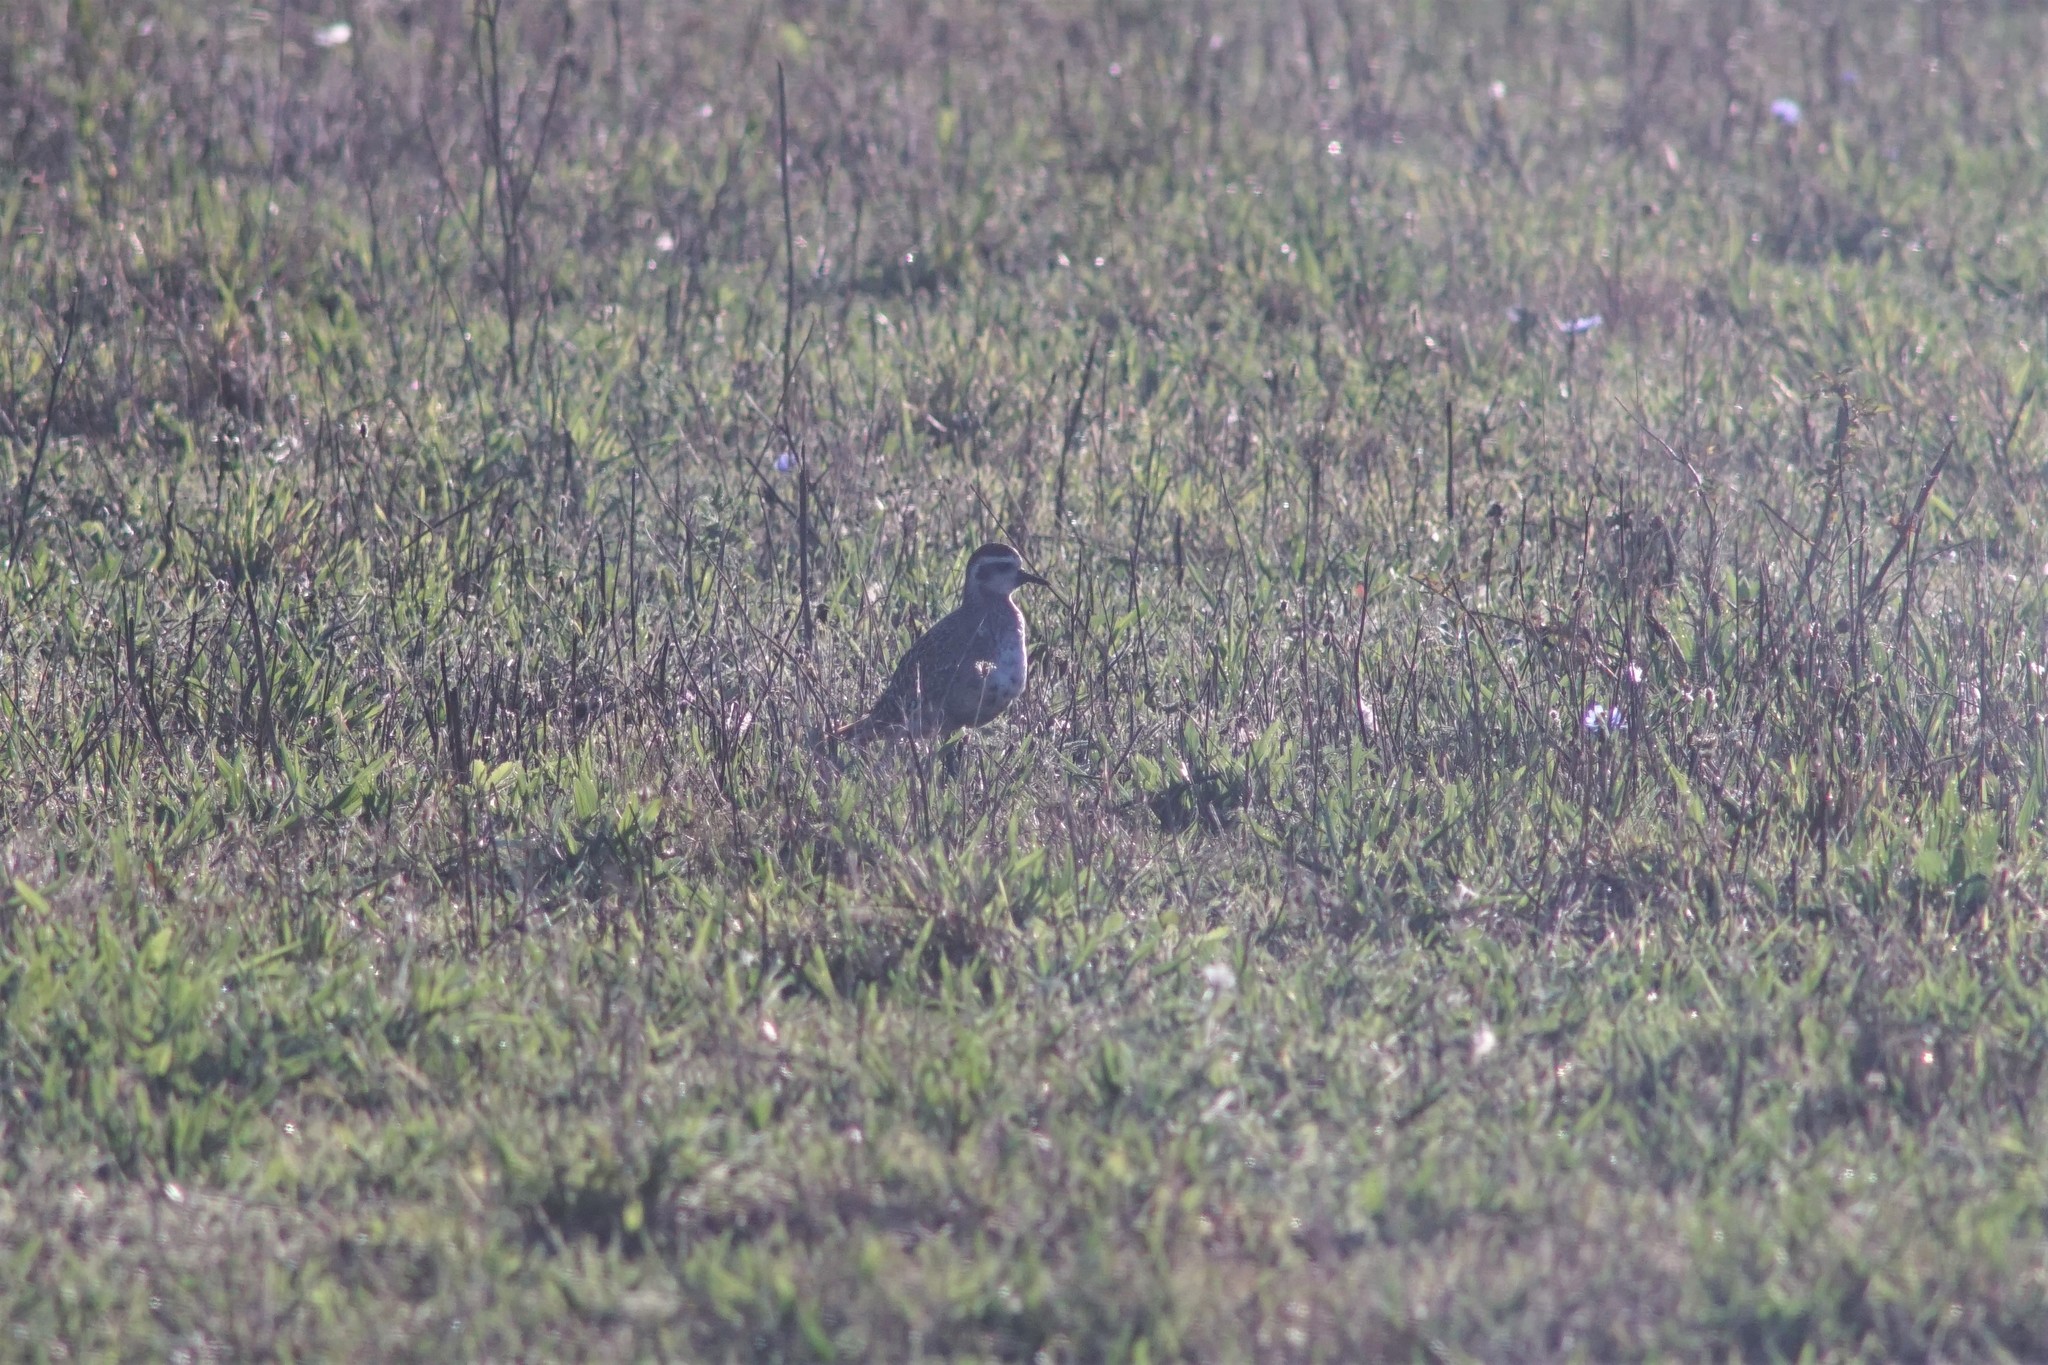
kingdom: Animalia
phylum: Chordata
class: Aves
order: Charadriiformes
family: Charadriidae
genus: Pluvialis
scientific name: Pluvialis dominica
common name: American golden plover
